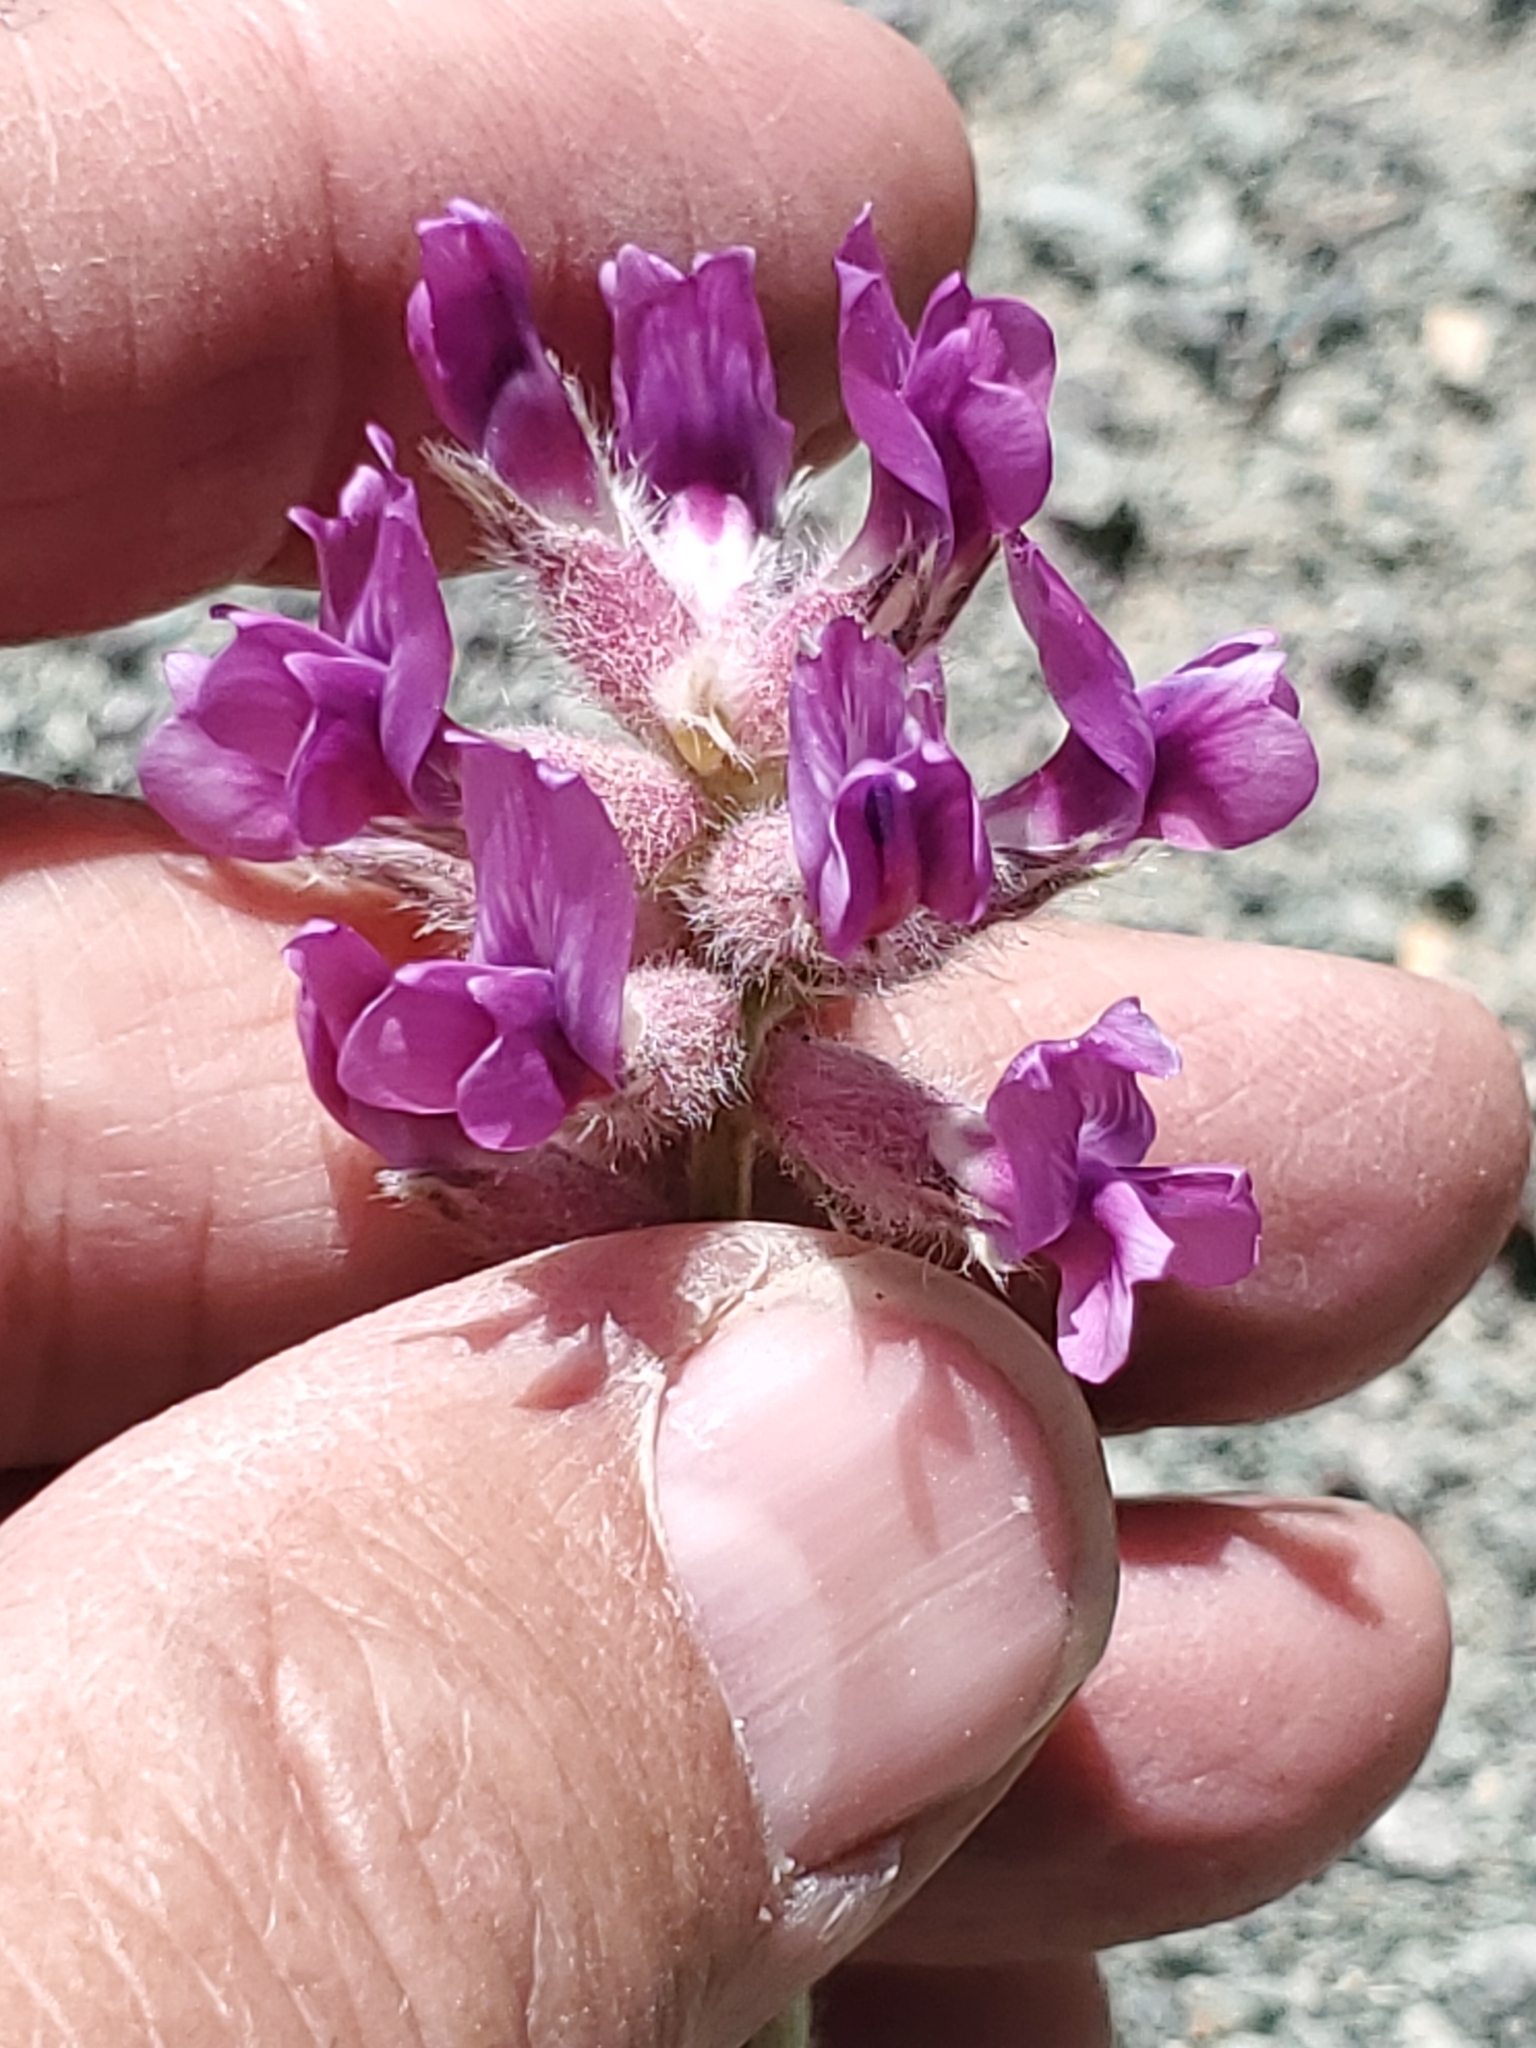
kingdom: Plantae
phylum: Tracheophyta
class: Magnoliopsida
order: Fabales
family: Fabaceae
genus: Oxytropis
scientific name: Oxytropis besseyi
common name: Bessey's locoweed
